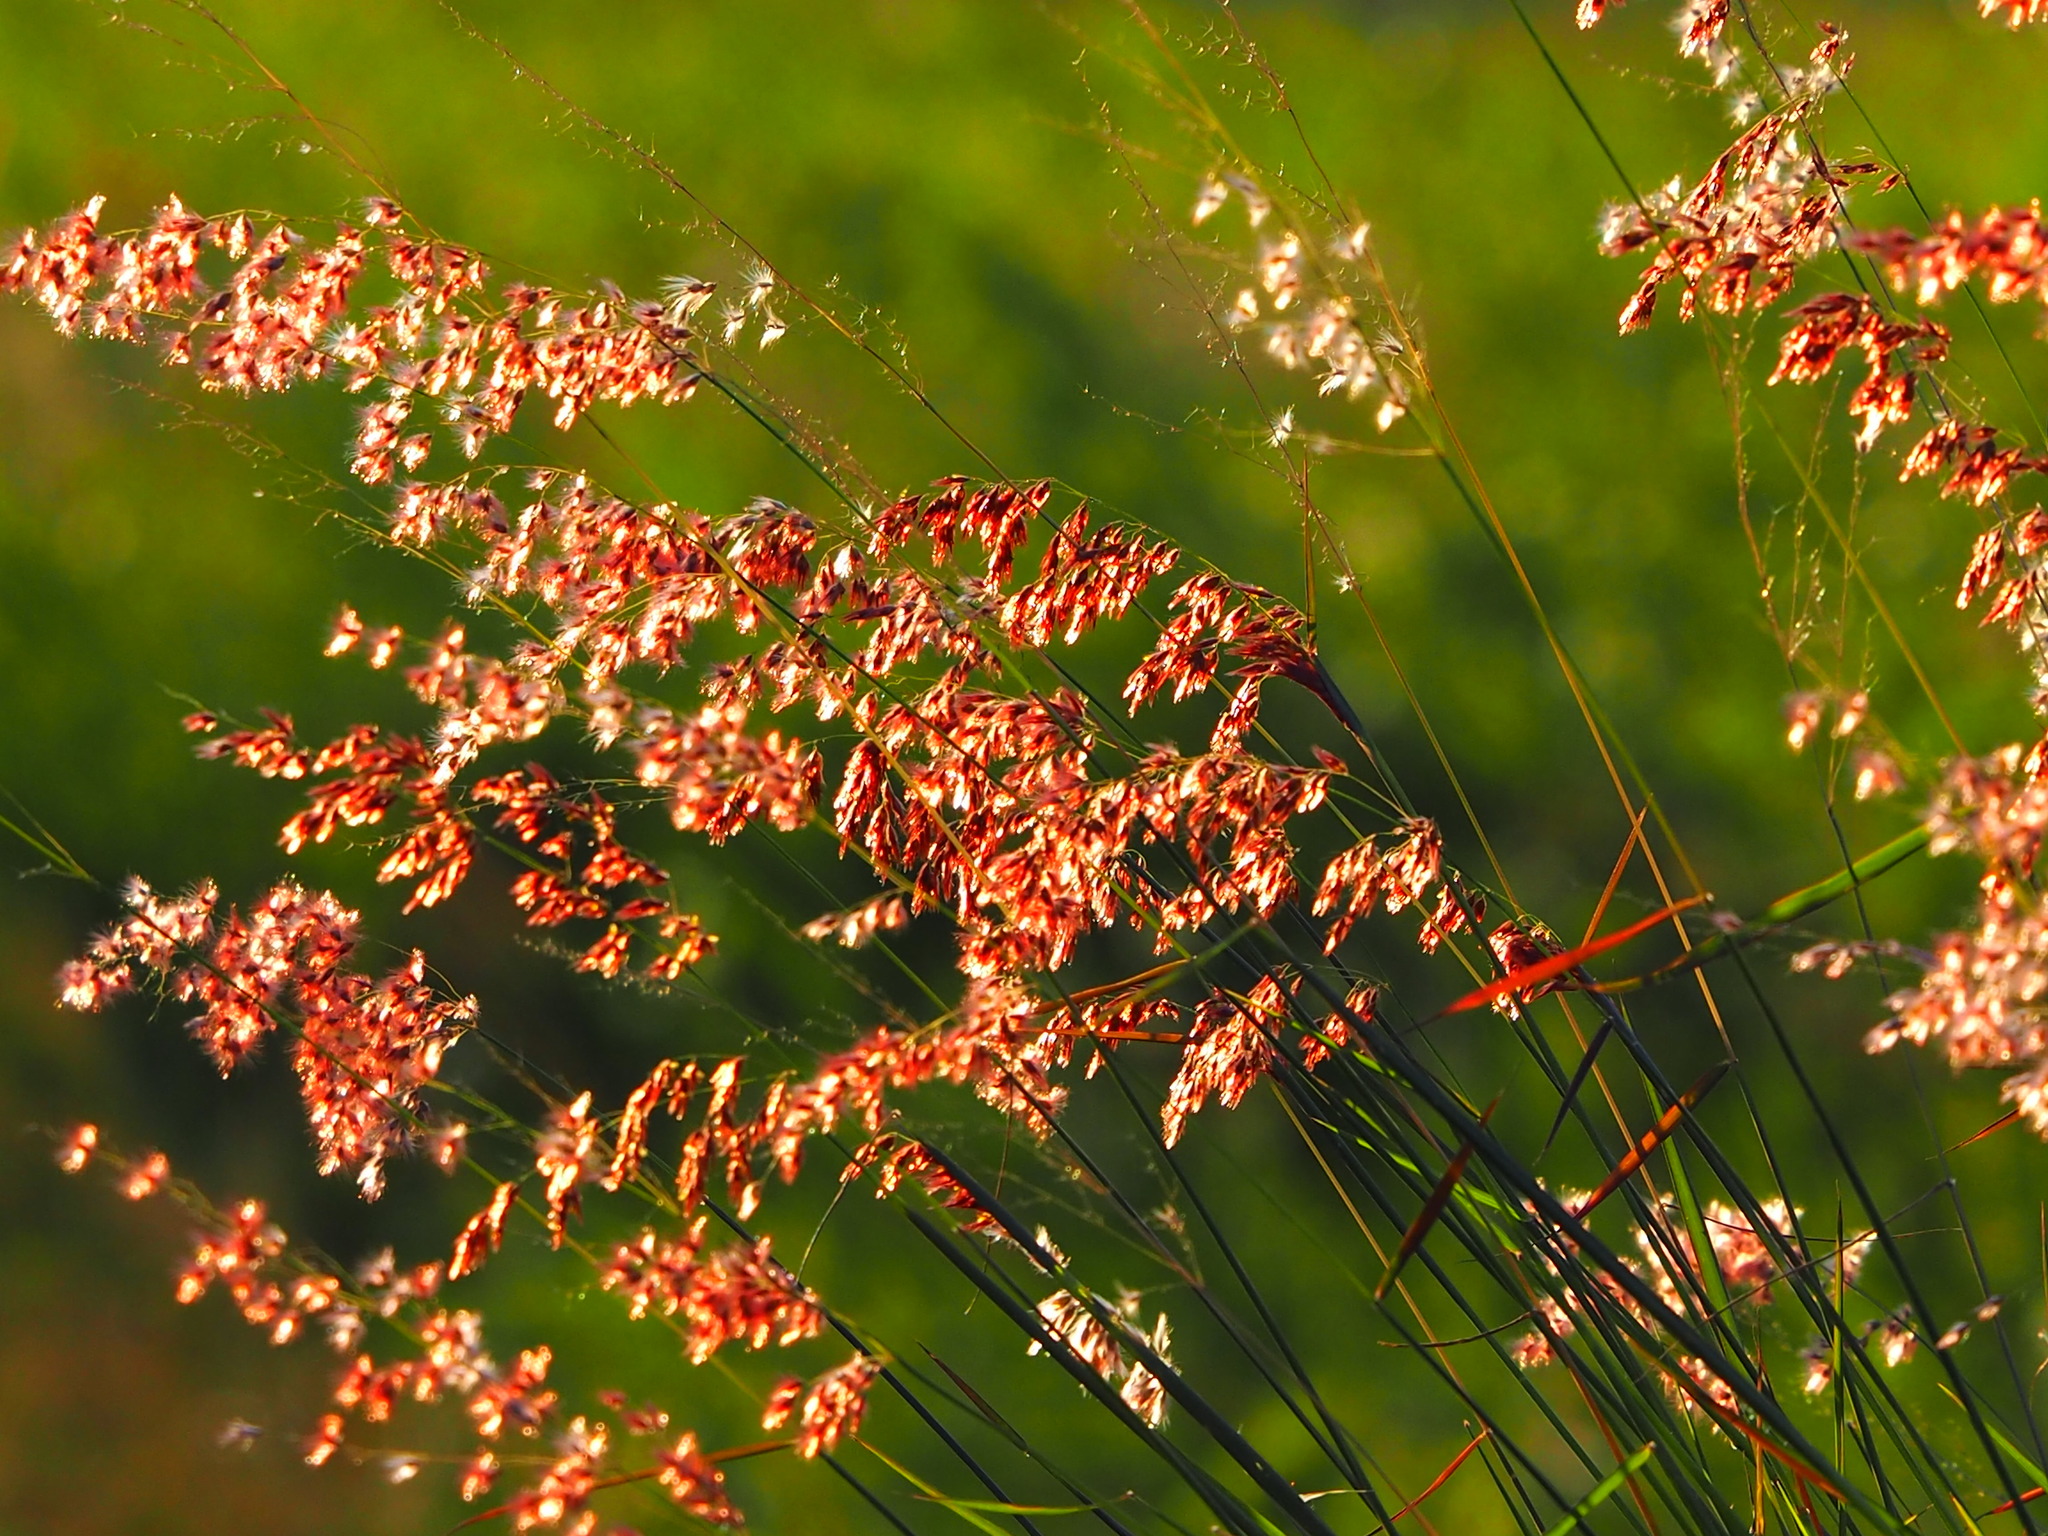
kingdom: Plantae
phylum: Tracheophyta
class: Liliopsida
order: Poales
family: Poaceae
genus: Melinis
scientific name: Melinis repens
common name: Rose natal grass
